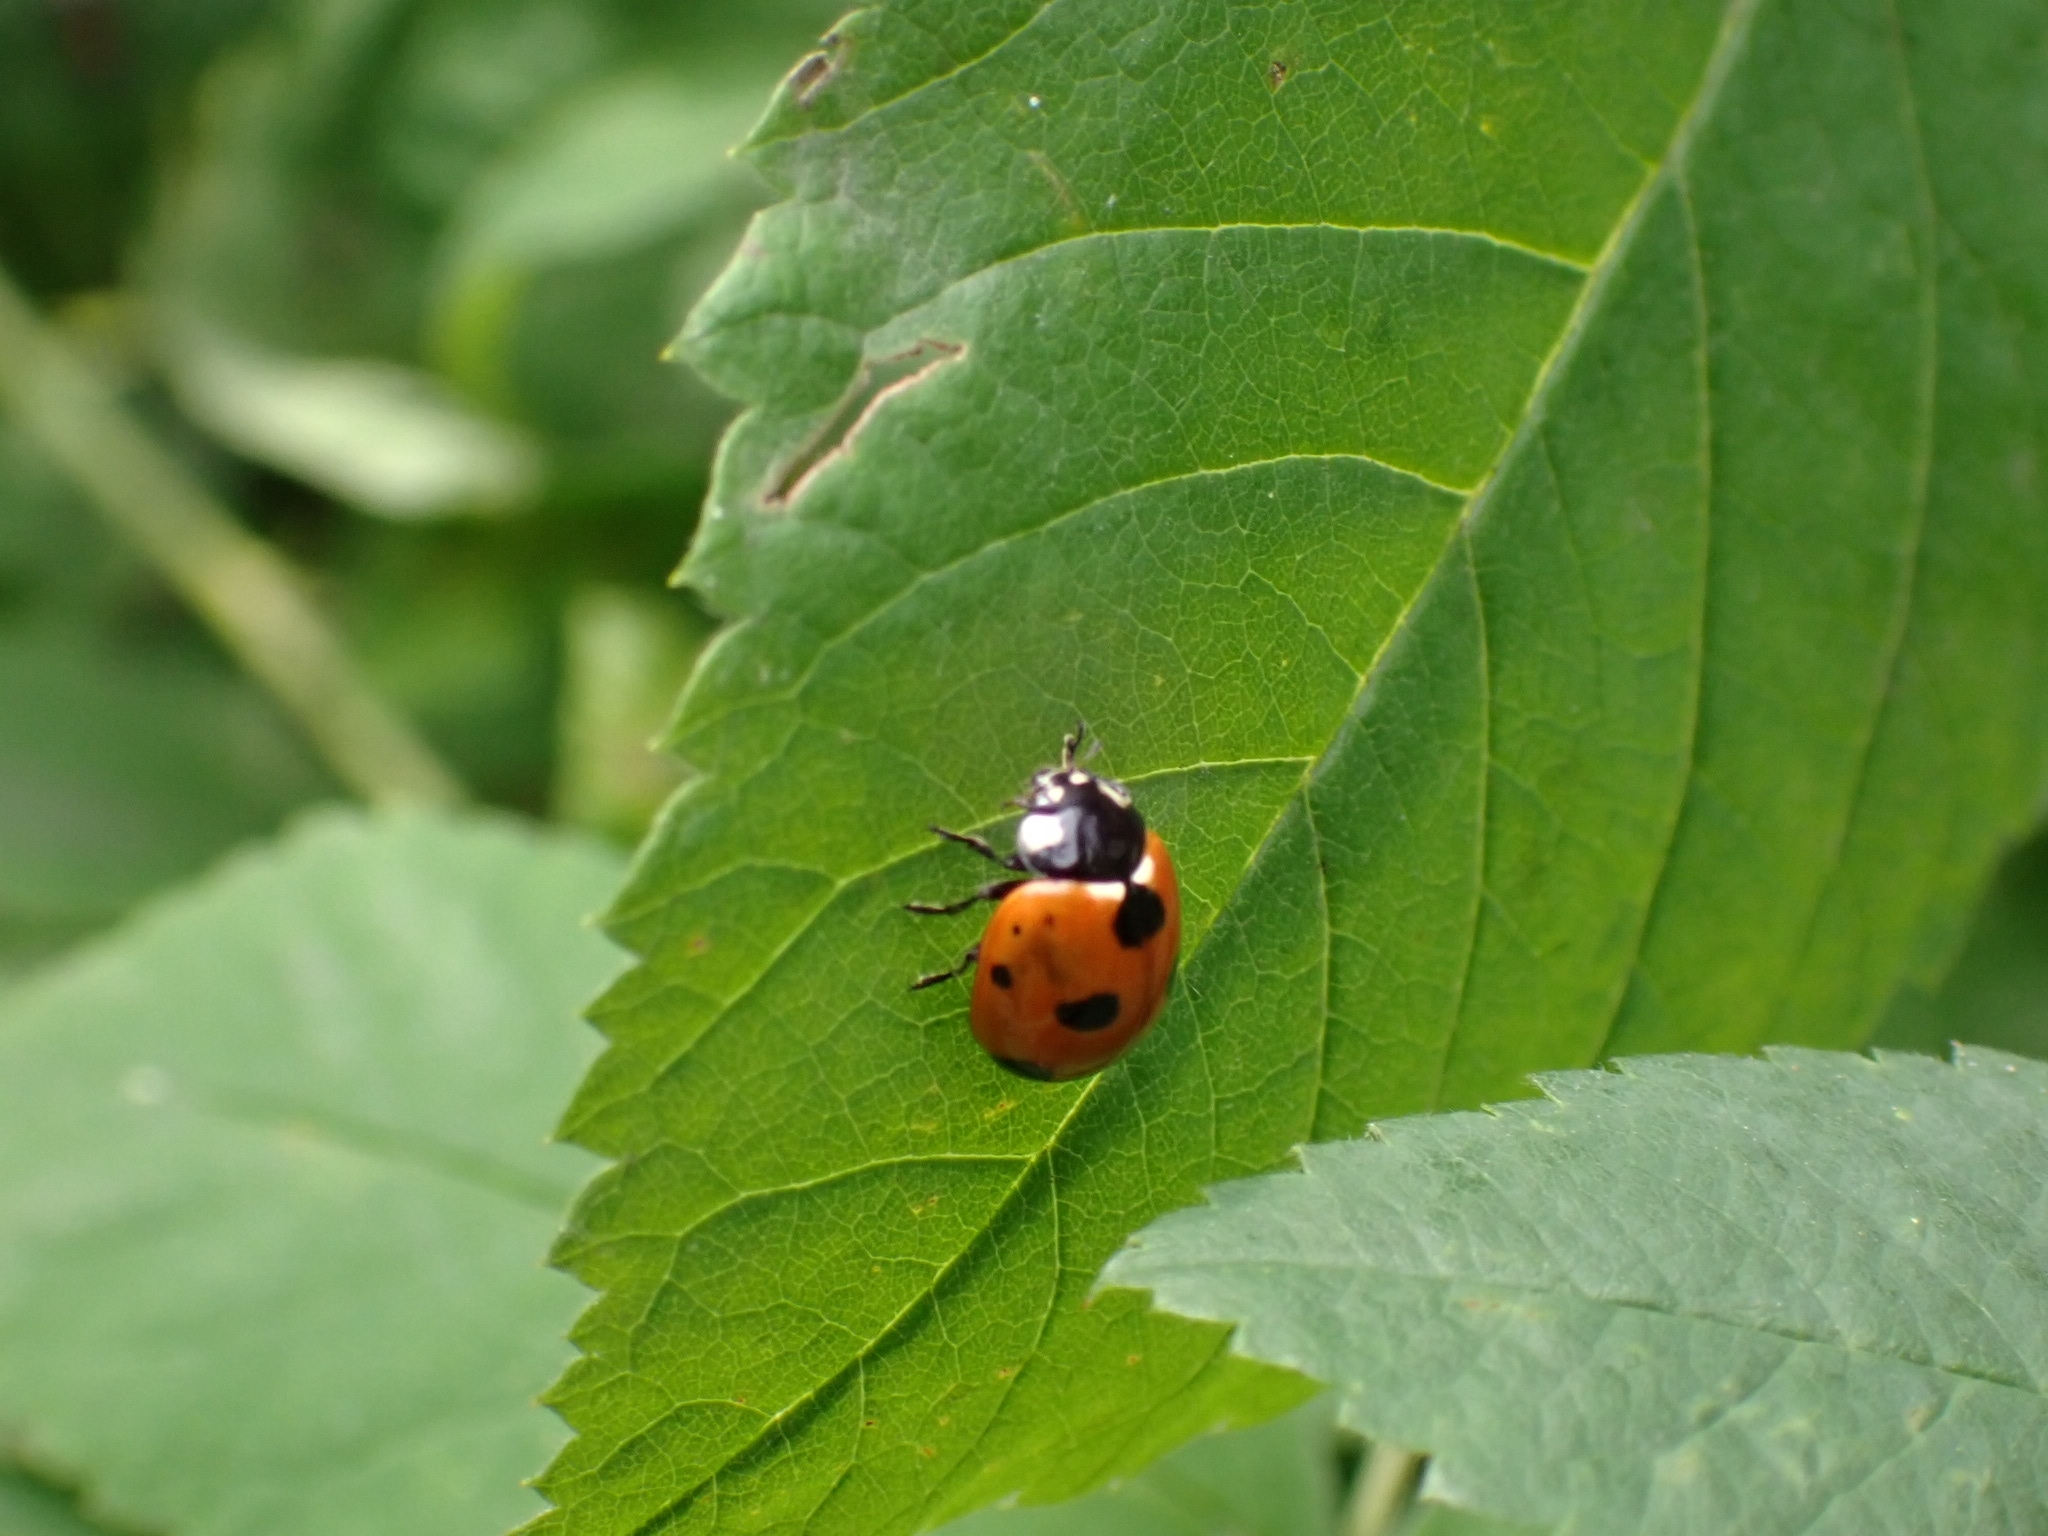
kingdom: Animalia
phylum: Arthropoda
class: Insecta
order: Coleoptera
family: Coccinellidae
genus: Coccinella
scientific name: Coccinella septempunctata
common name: Sevenspotted lady beetle
